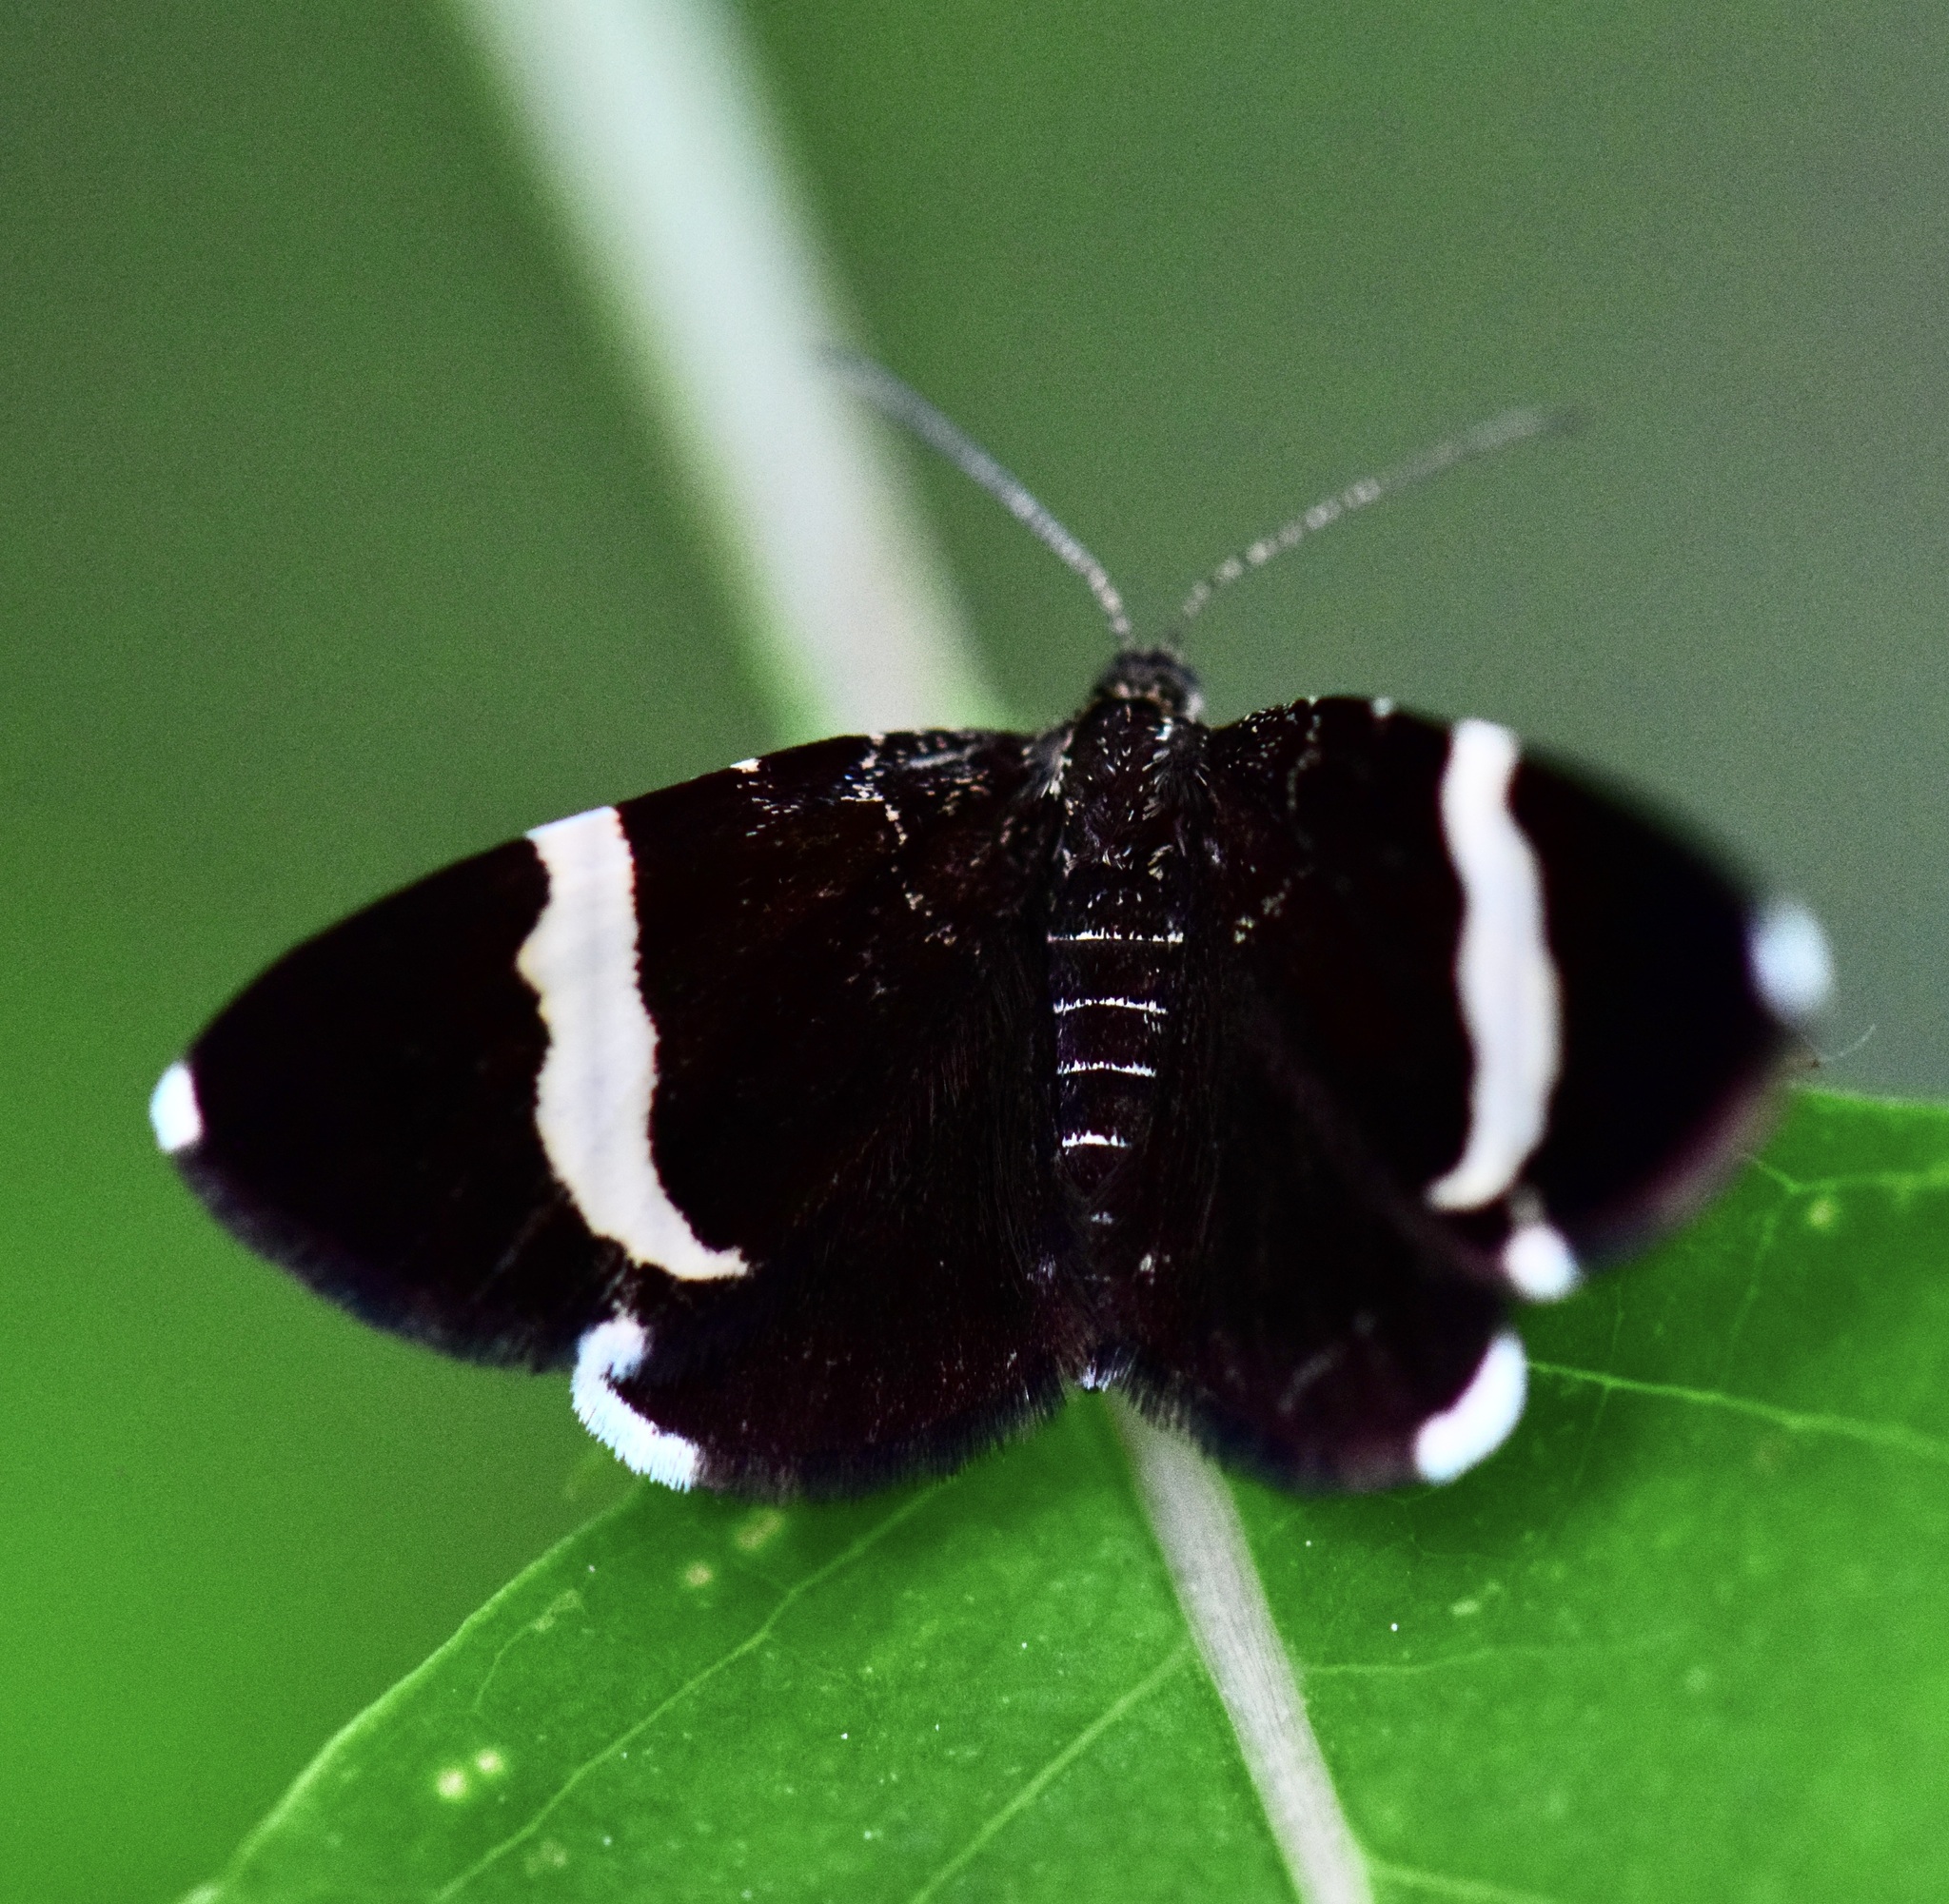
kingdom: Animalia
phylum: Arthropoda
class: Insecta
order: Lepidoptera
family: Geometridae
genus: Trichodezia
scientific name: Trichodezia albovittata
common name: White striped black
